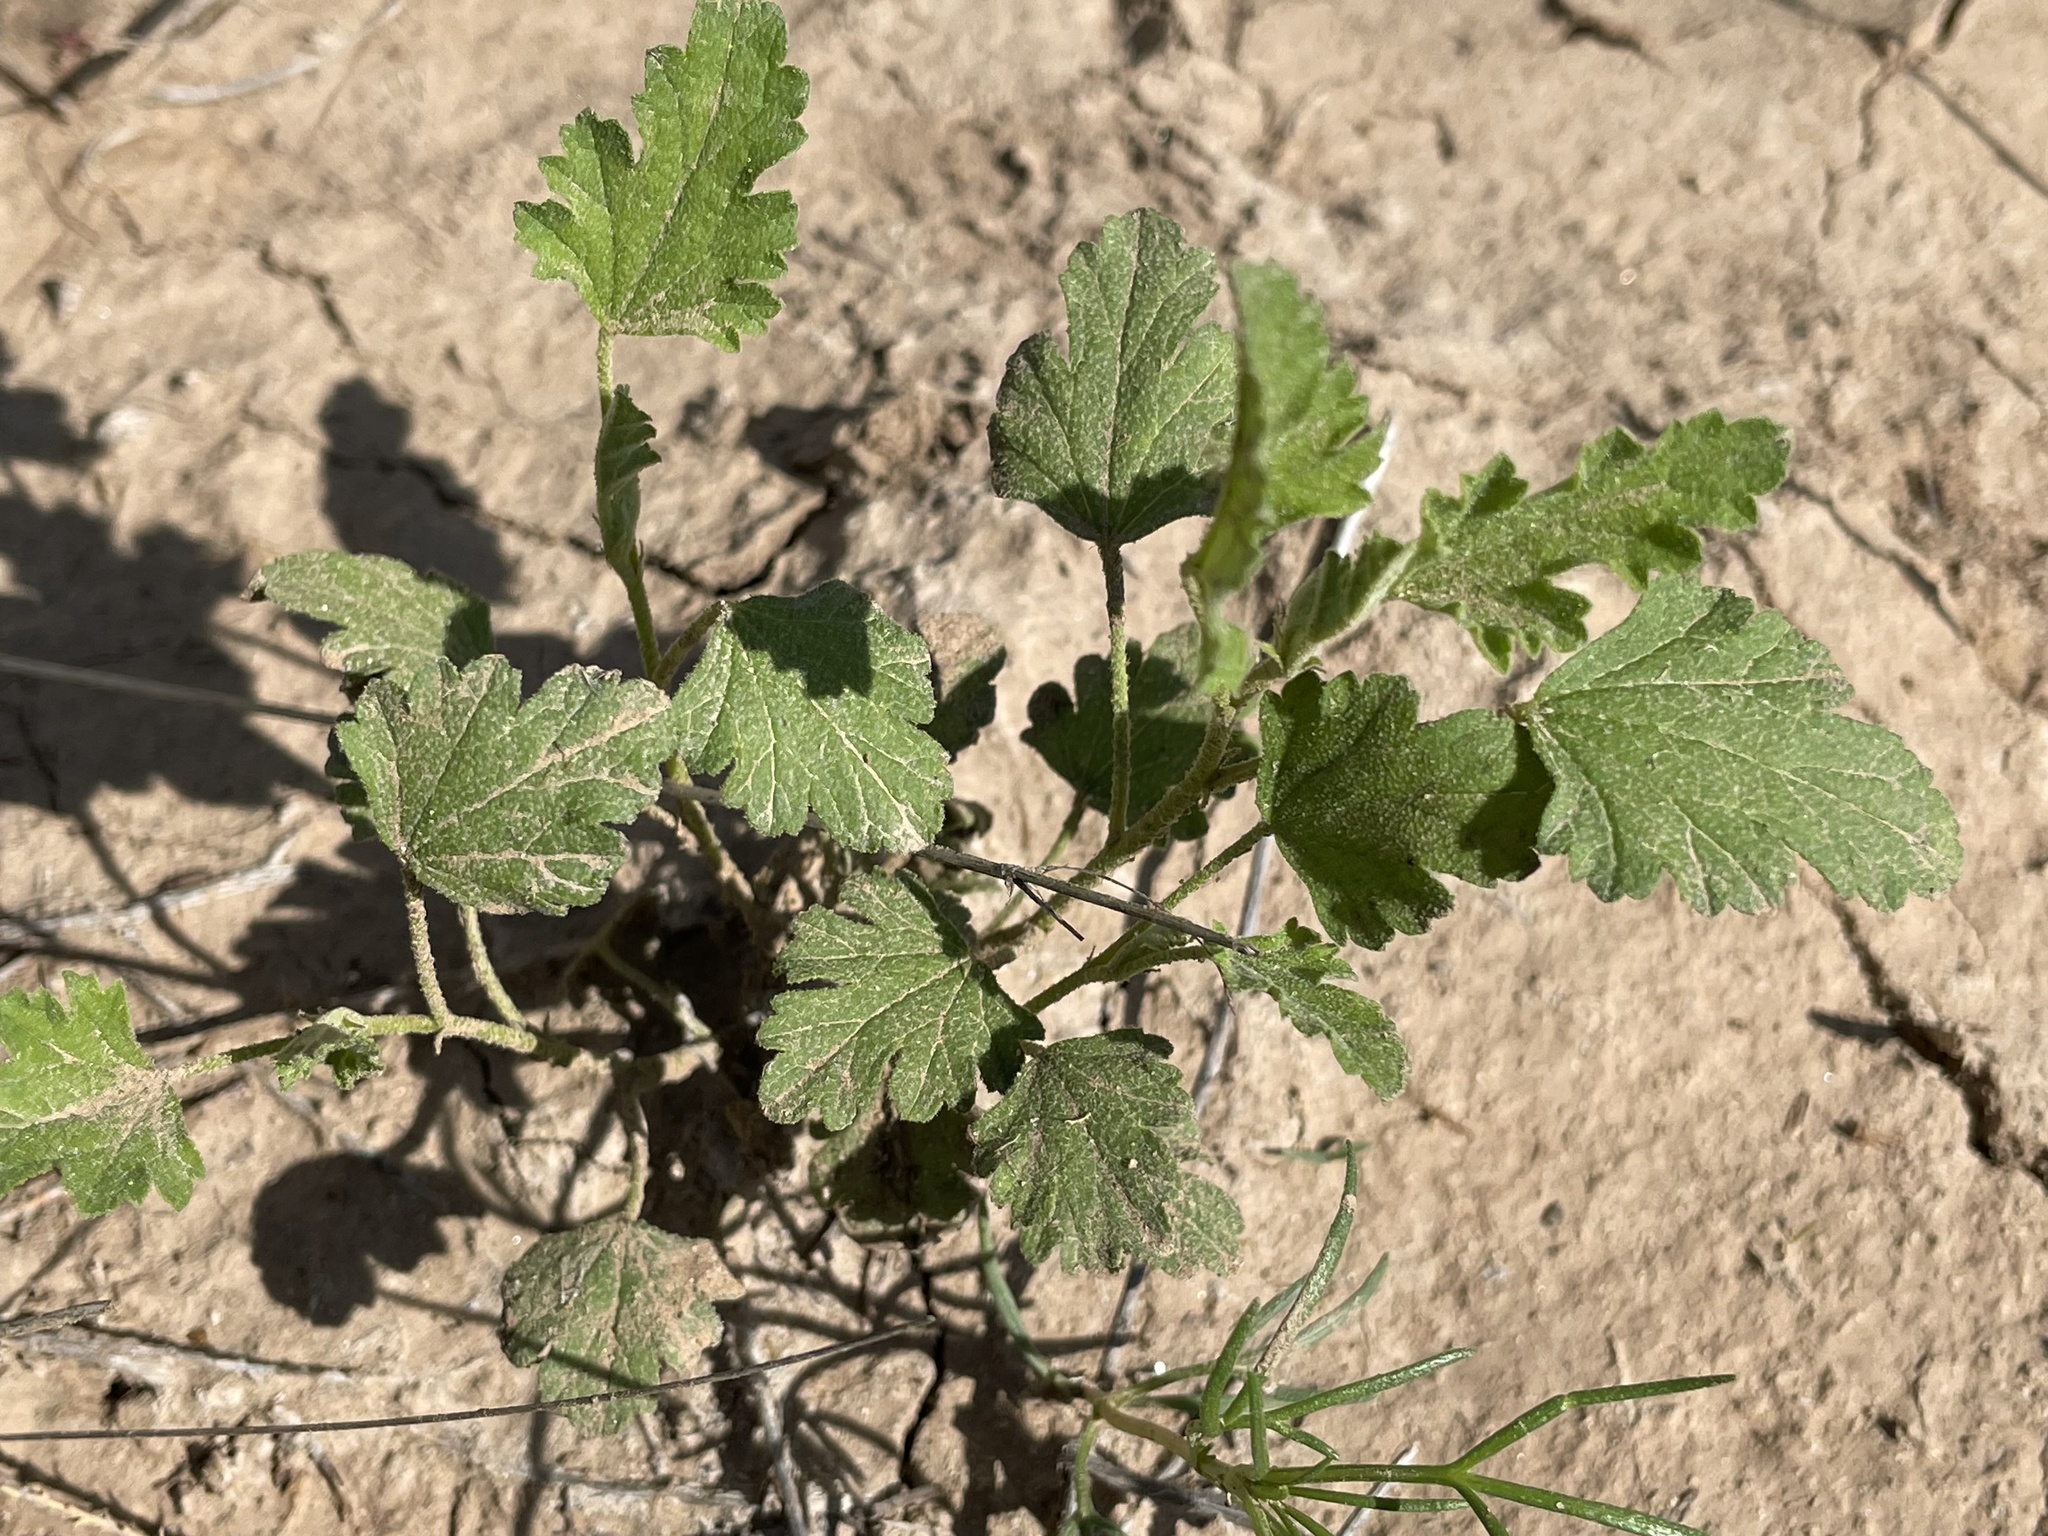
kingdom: Plantae
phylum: Tracheophyta
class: Magnoliopsida
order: Malvales
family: Malvaceae
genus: Sphaeralcea
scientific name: Sphaeralcea fendleri
